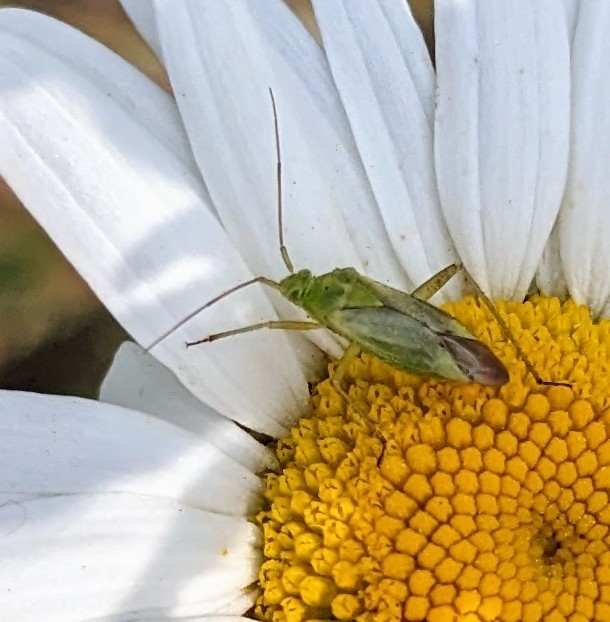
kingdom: Animalia
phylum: Arthropoda
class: Insecta
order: Hemiptera
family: Miridae
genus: Closterotomus
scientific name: Closterotomus norvegicus
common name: Plant bug
